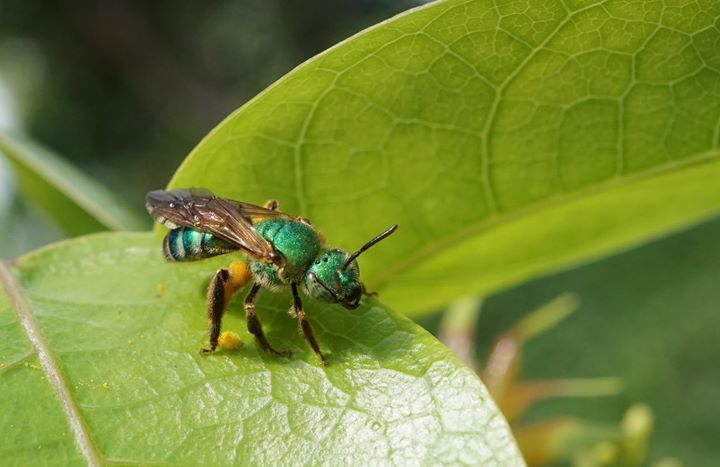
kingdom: Animalia
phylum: Arthropoda
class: Insecta
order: Hymenoptera
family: Halictidae
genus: Agapostemon
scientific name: Agapostemon splendens
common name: Brown-winged striped sweat bee
